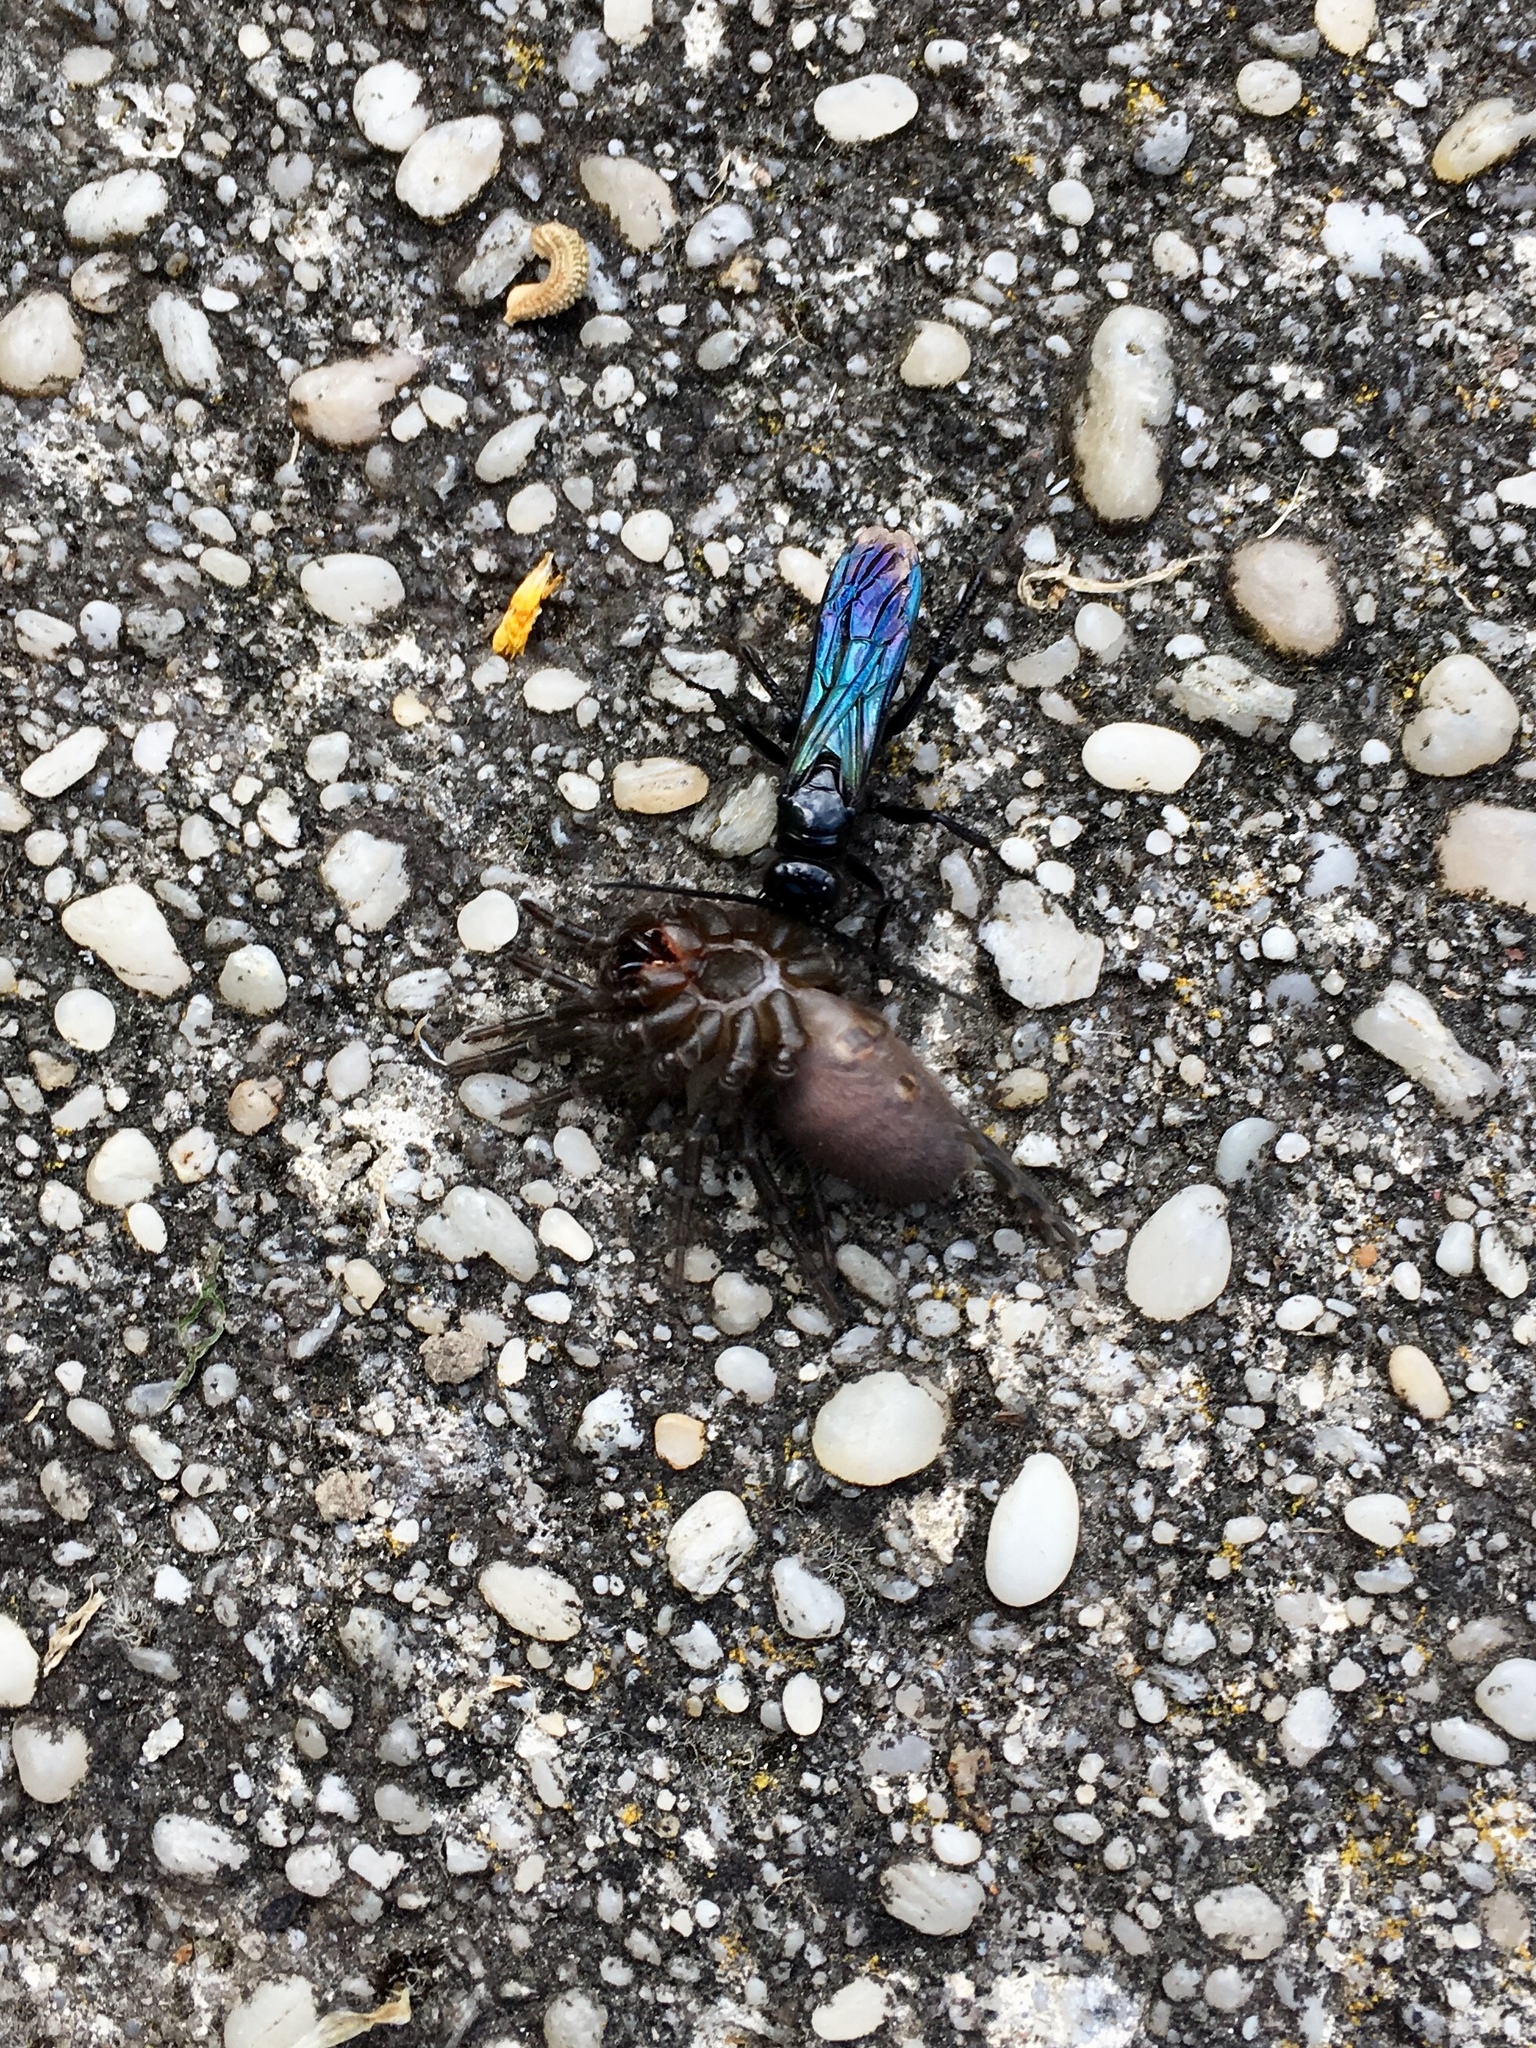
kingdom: Animalia
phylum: Arthropoda
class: Insecta
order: Hymenoptera
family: Pompilidae
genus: Priocnemis
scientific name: Priocnemis monachus
